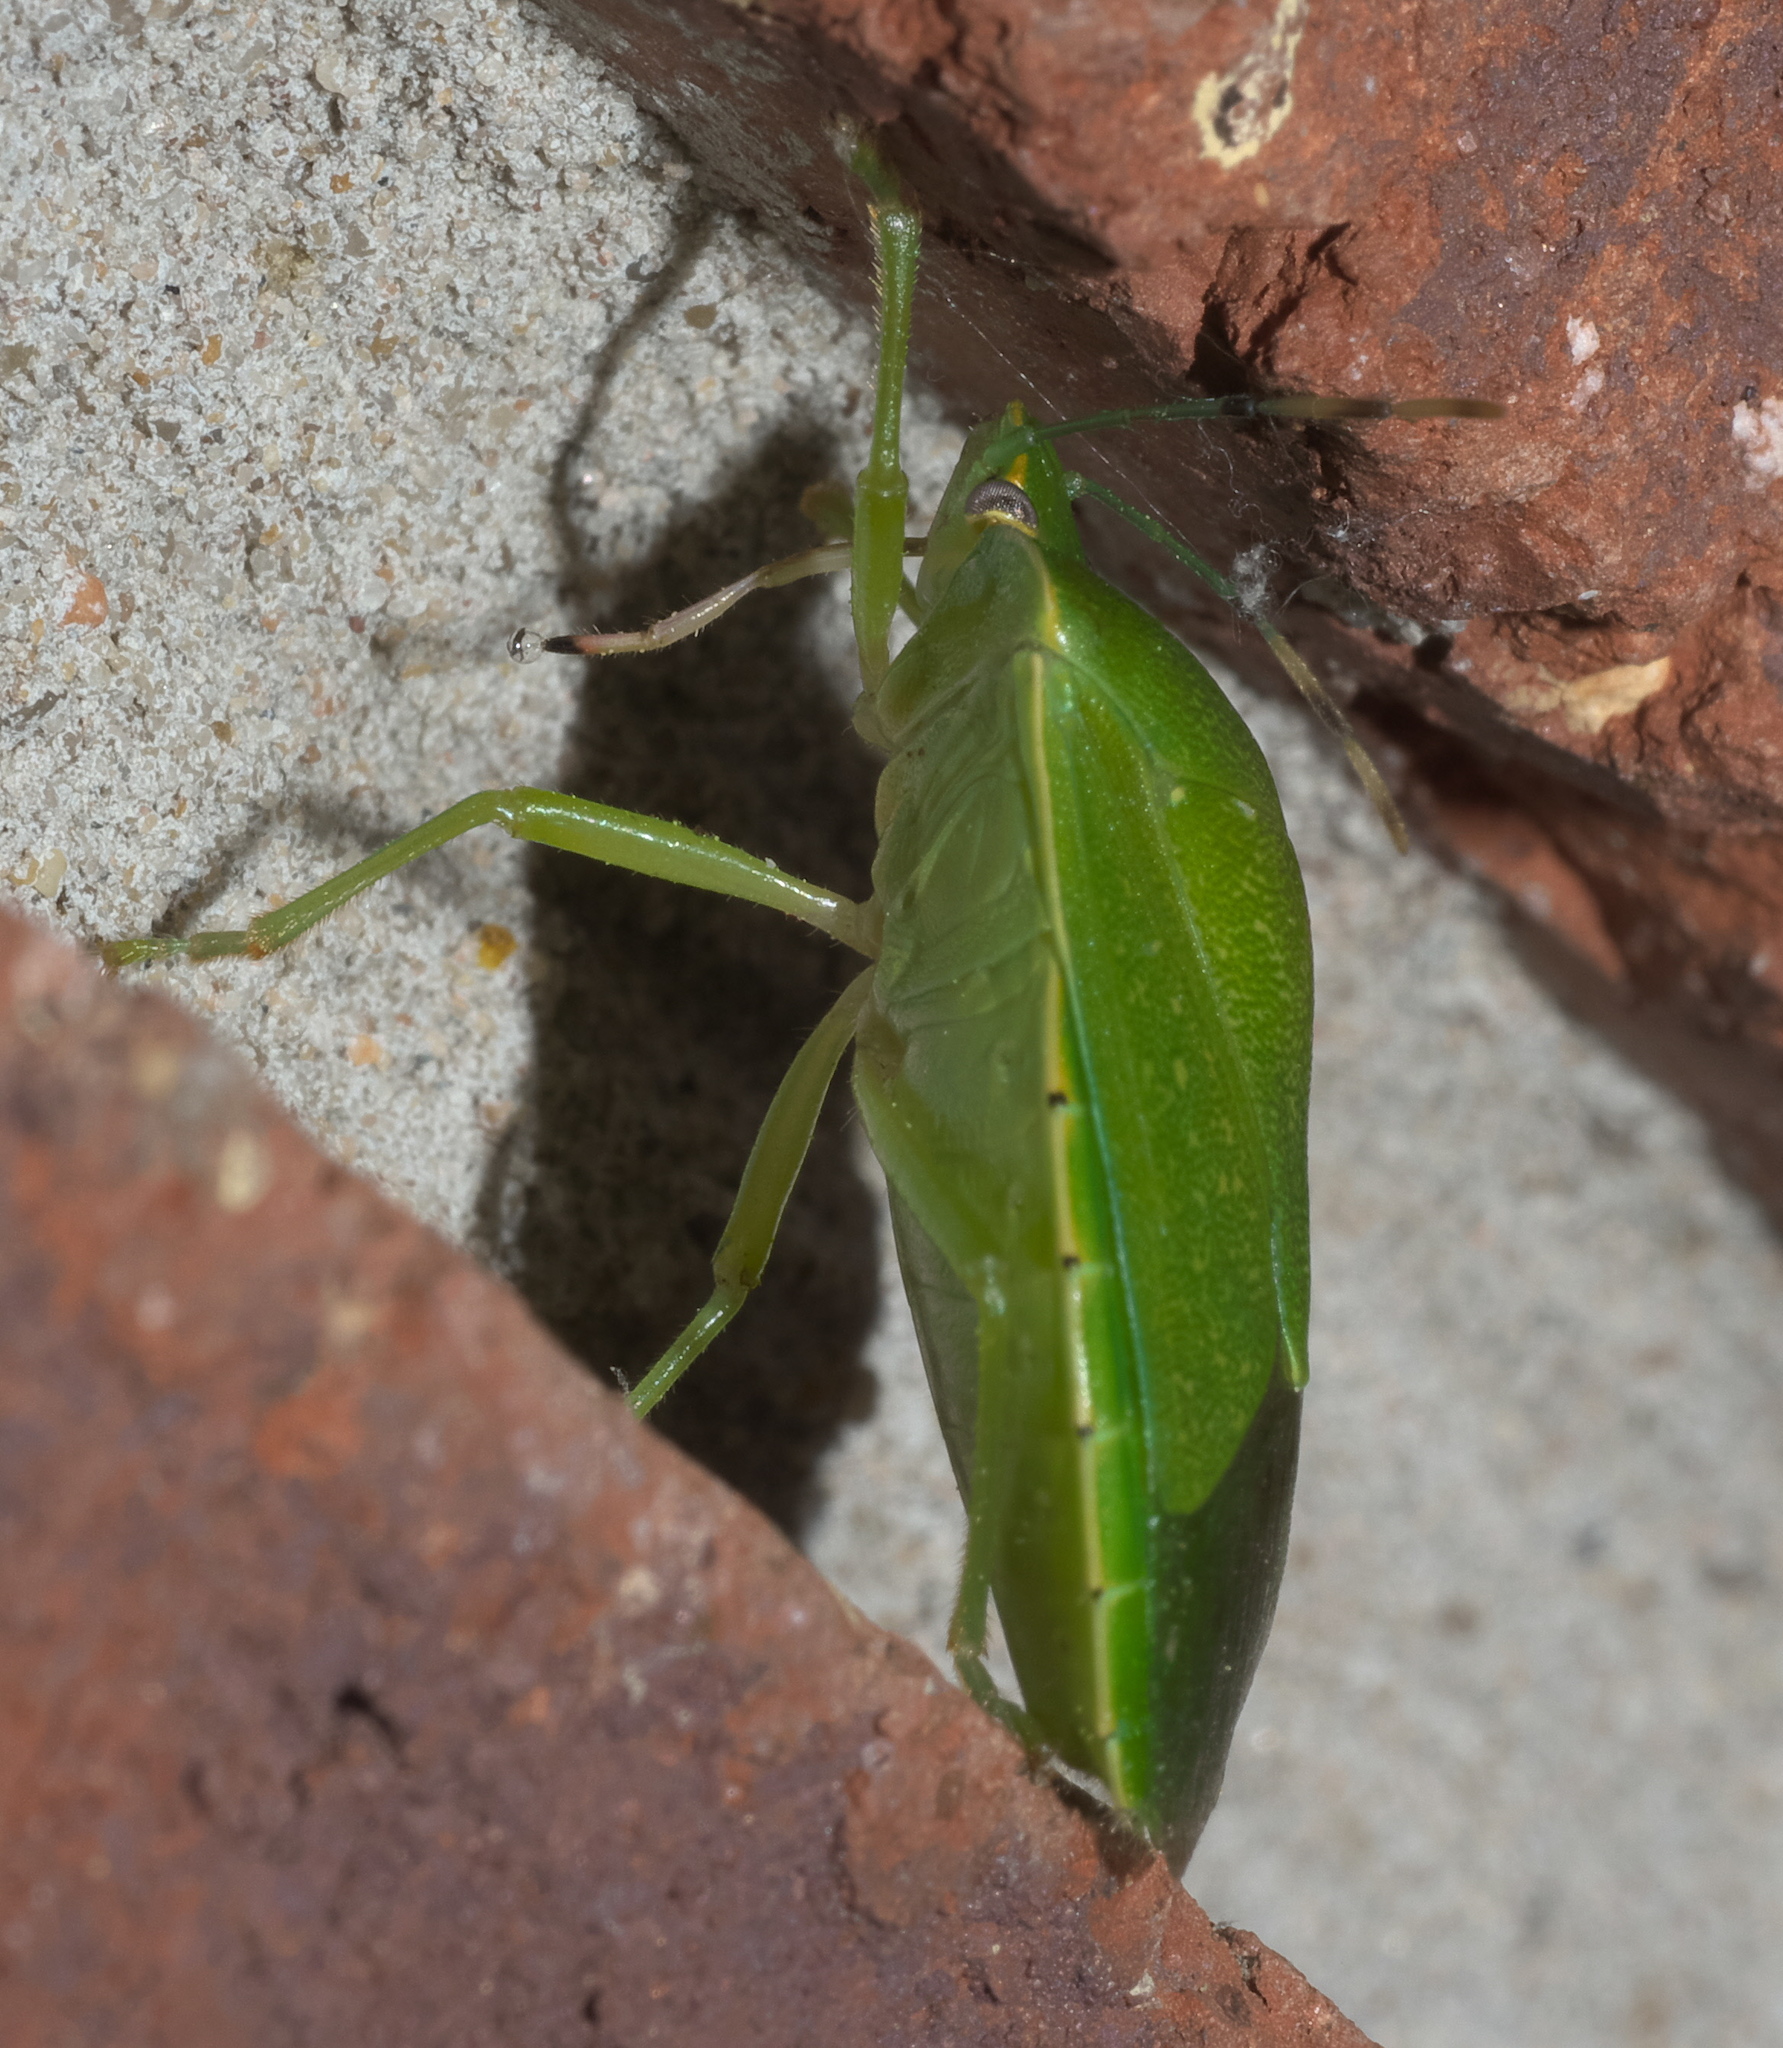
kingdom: Animalia
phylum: Arthropoda
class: Insecta
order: Hemiptera
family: Pentatomidae
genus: Chinavia
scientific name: Chinavia hilaris
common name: Green stink bug
